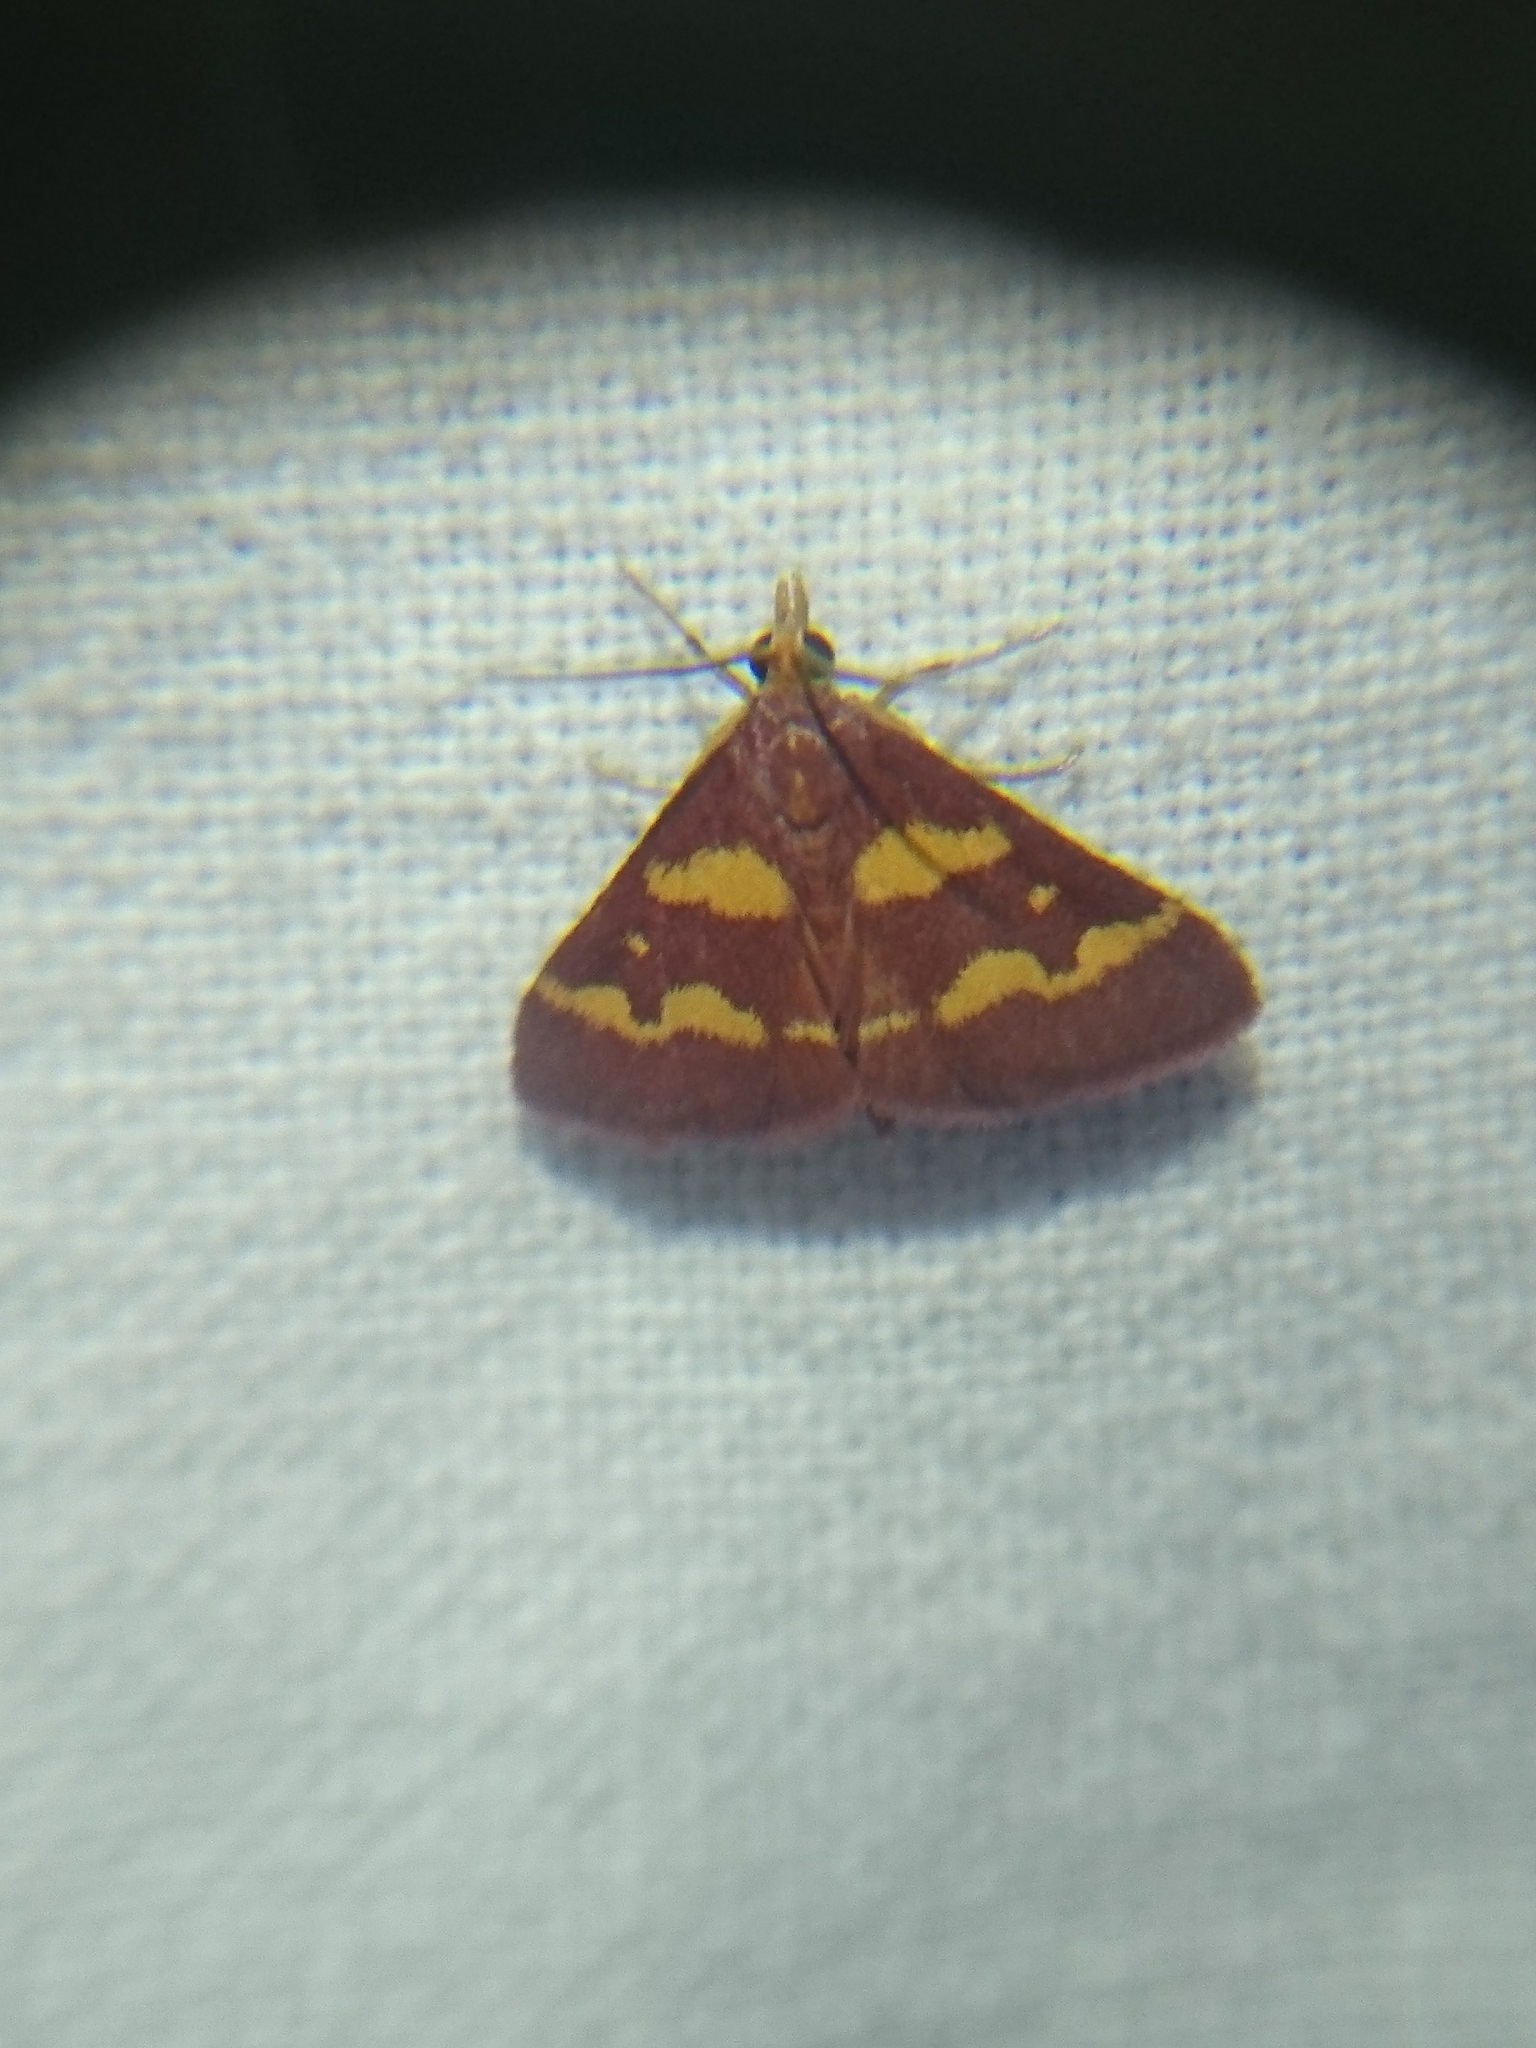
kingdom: Animalia
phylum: Arthropoda
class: Insecta
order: Lepidoptera
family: Crambidae
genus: Pyrausta
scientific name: Pyrausta tyralis
